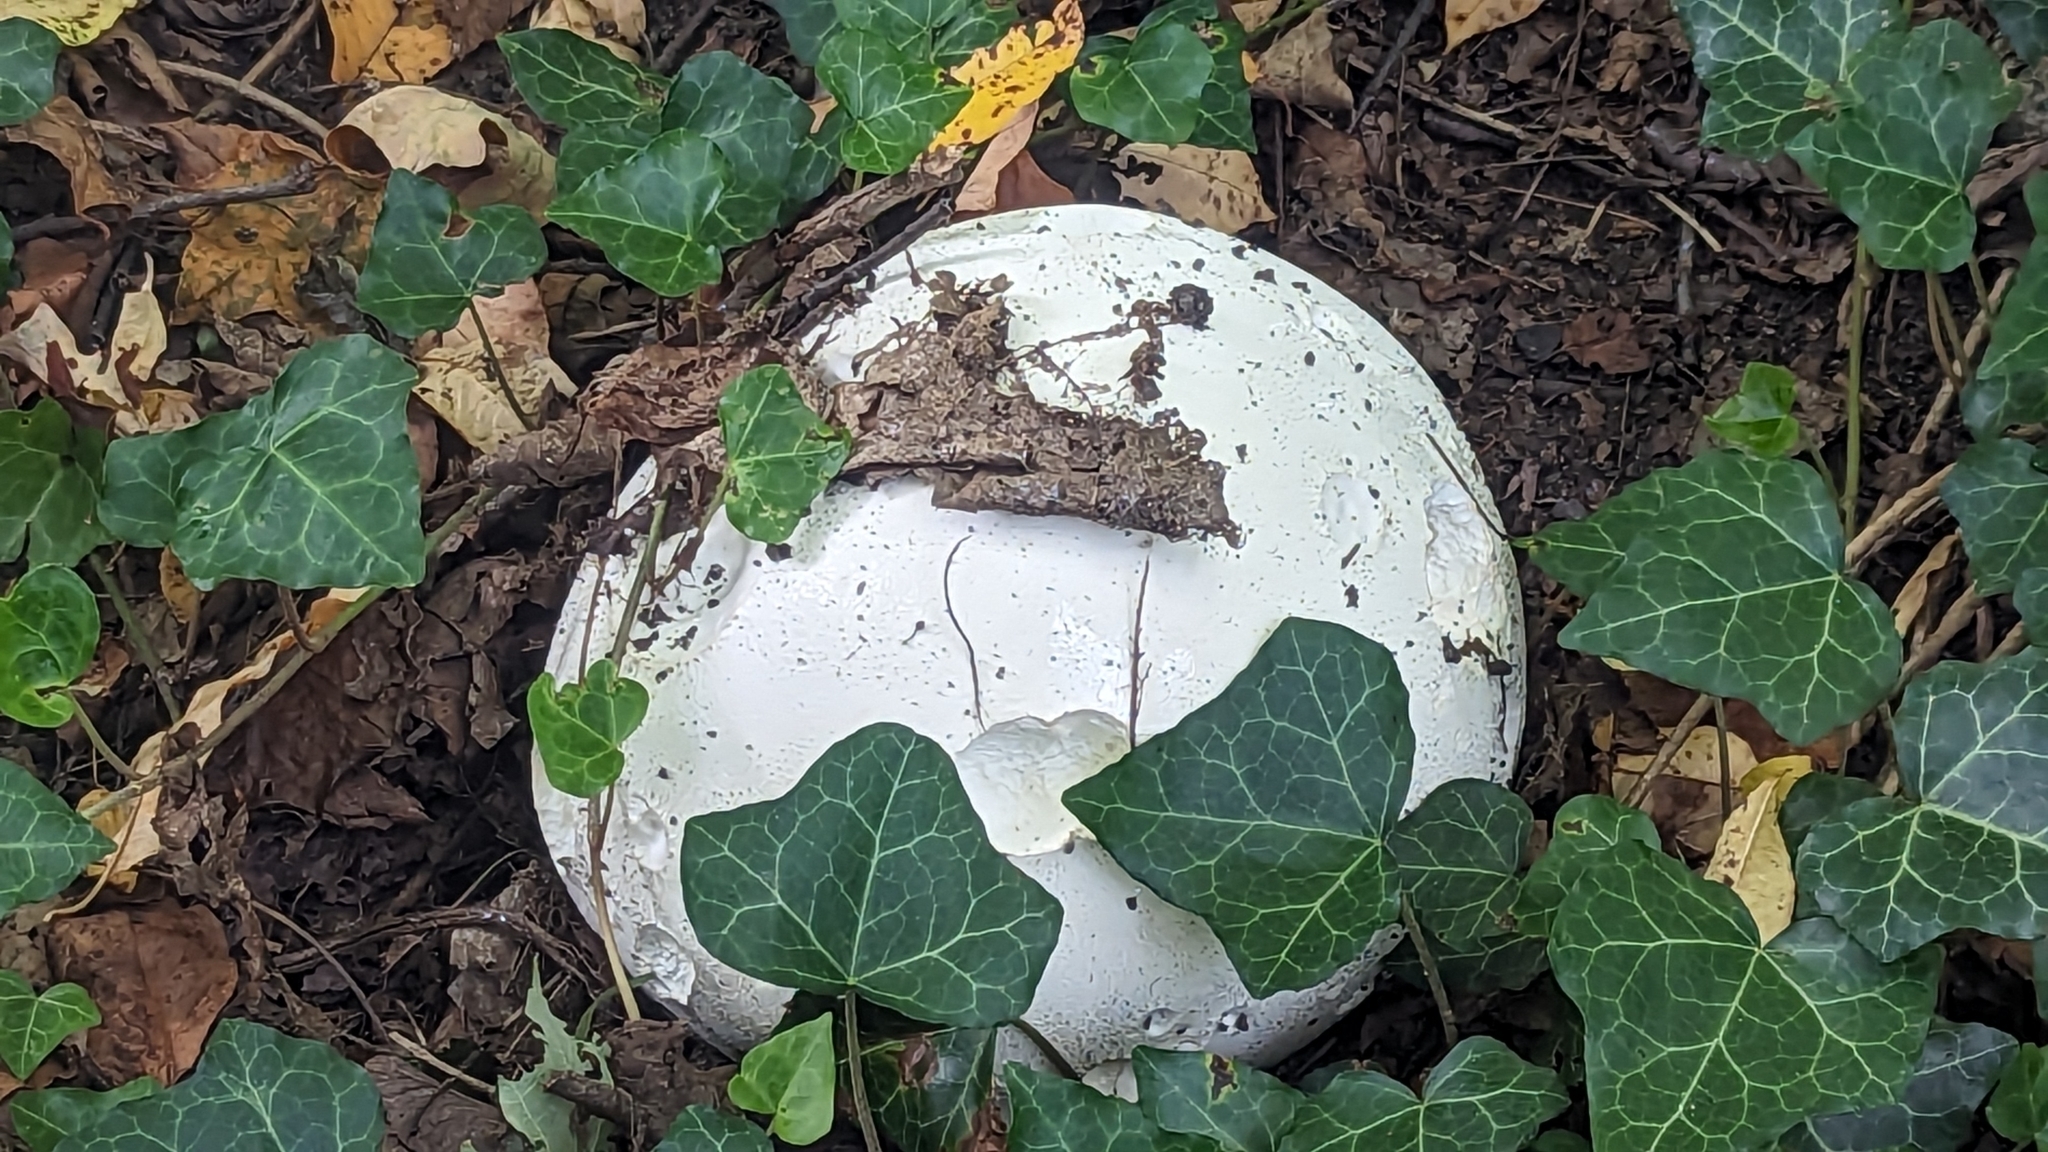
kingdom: Fungi
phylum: Basidiomycota
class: Agaricomycetes
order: Agaricales
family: Lycoperdaceae
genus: Calvatia
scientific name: Calvatia gigantea
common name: Giant puffball
